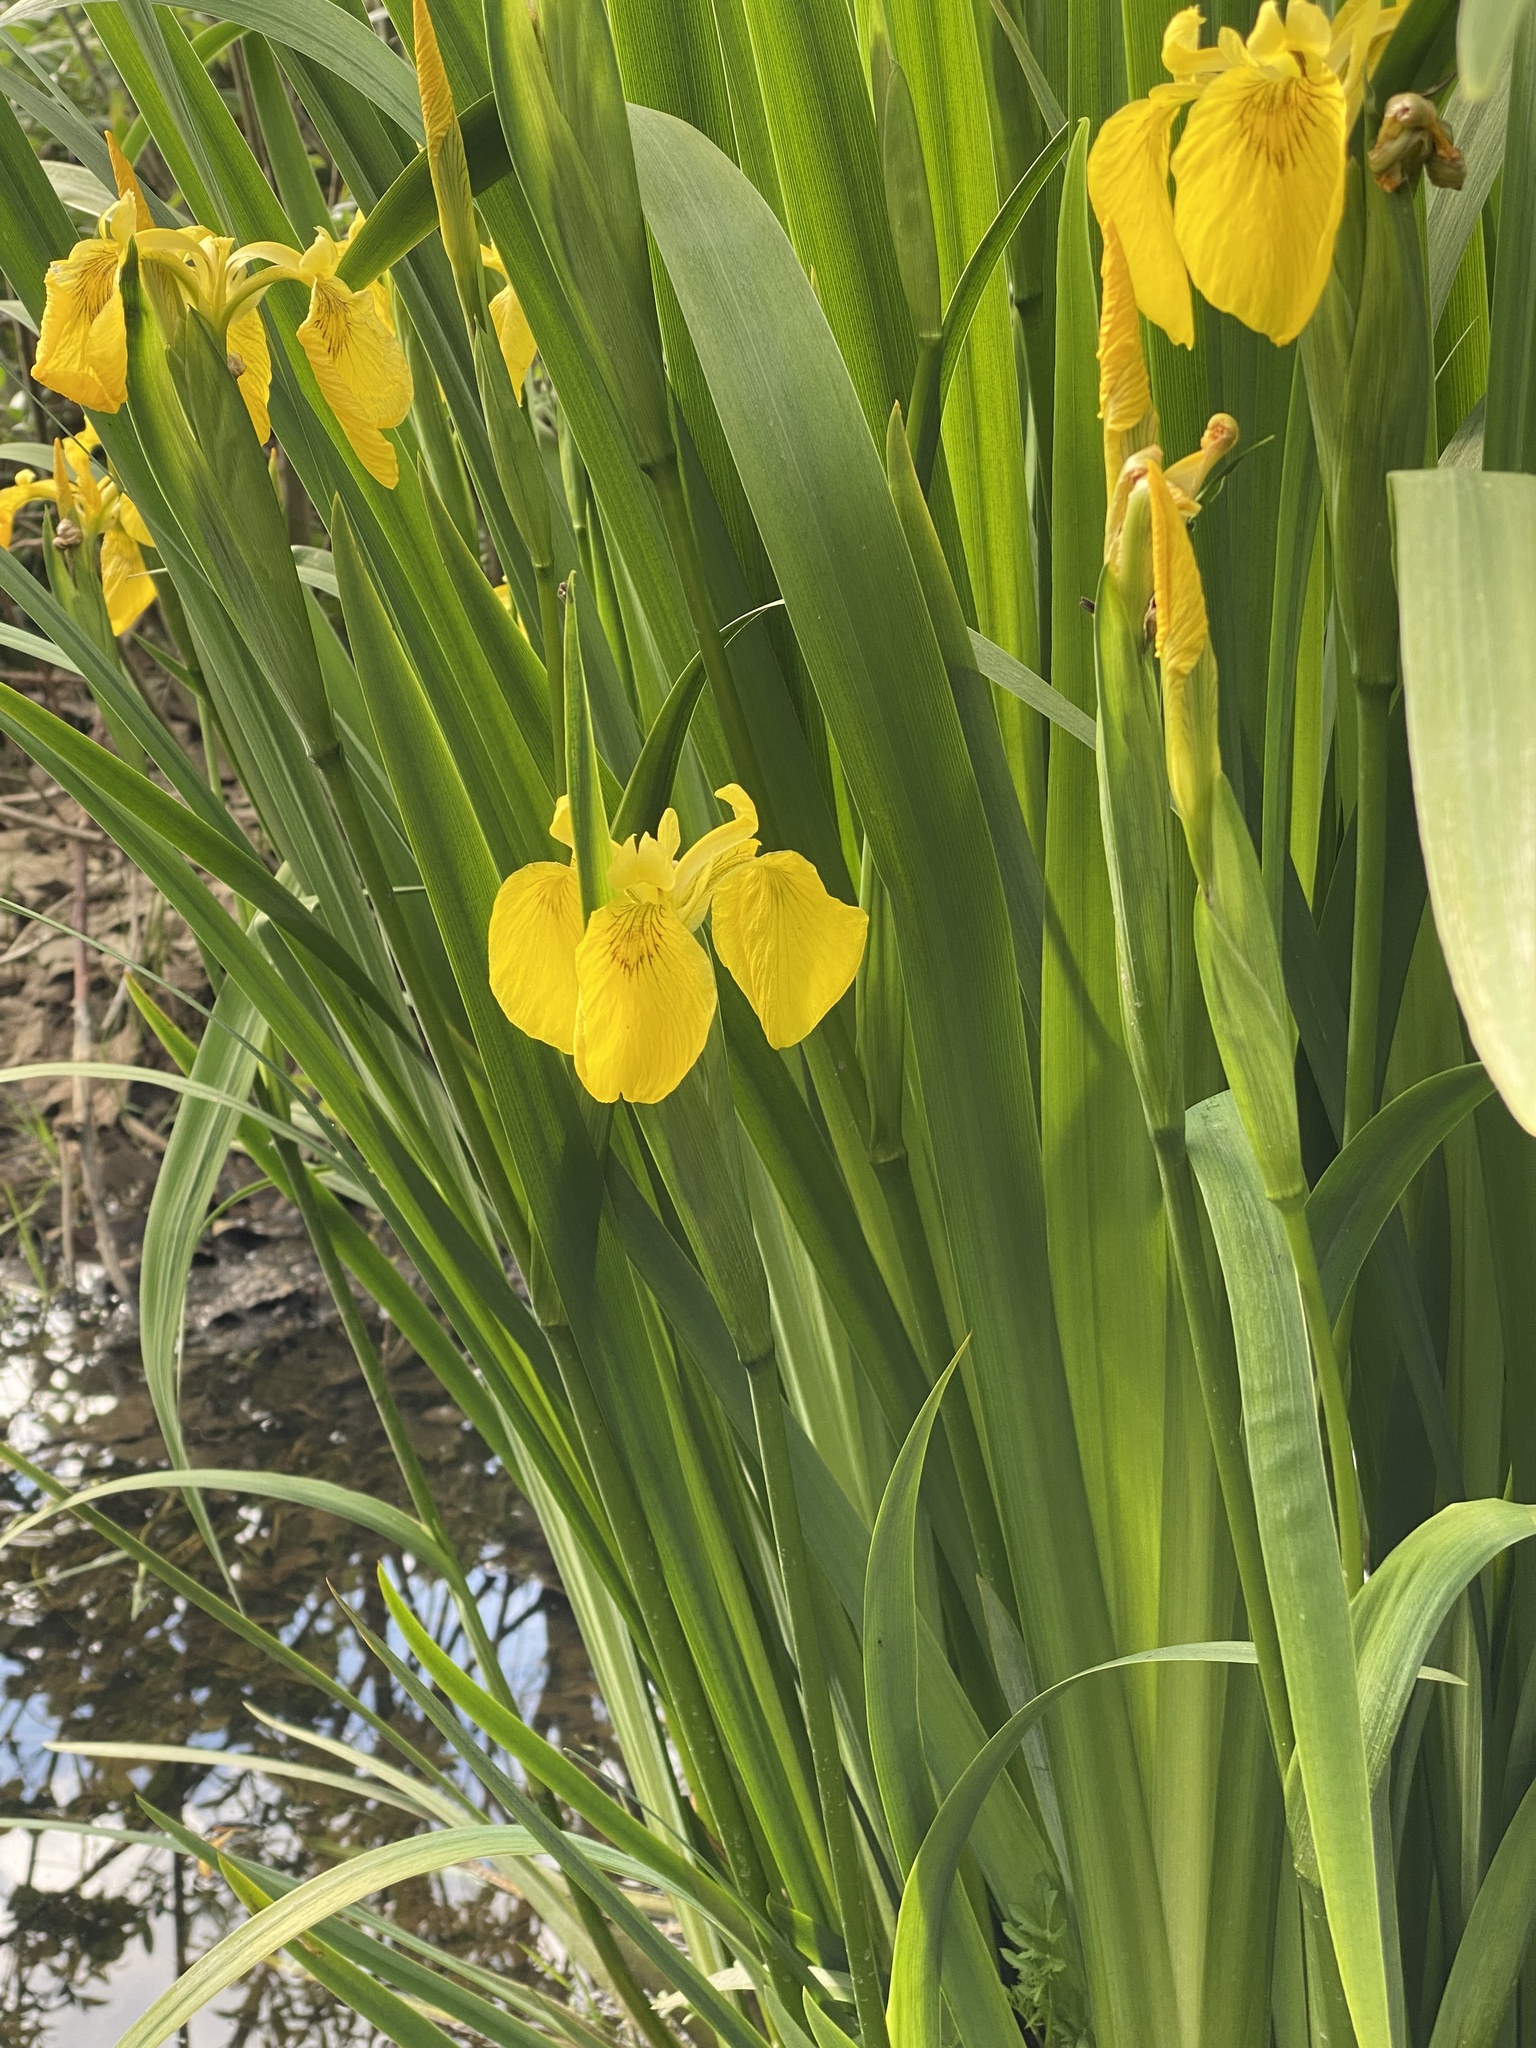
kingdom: Plantae
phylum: Tracheophyta
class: Liliopsida
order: Asparagales
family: Iridaceae
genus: Iris
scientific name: Iris pseudacorus
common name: Yellow flag
